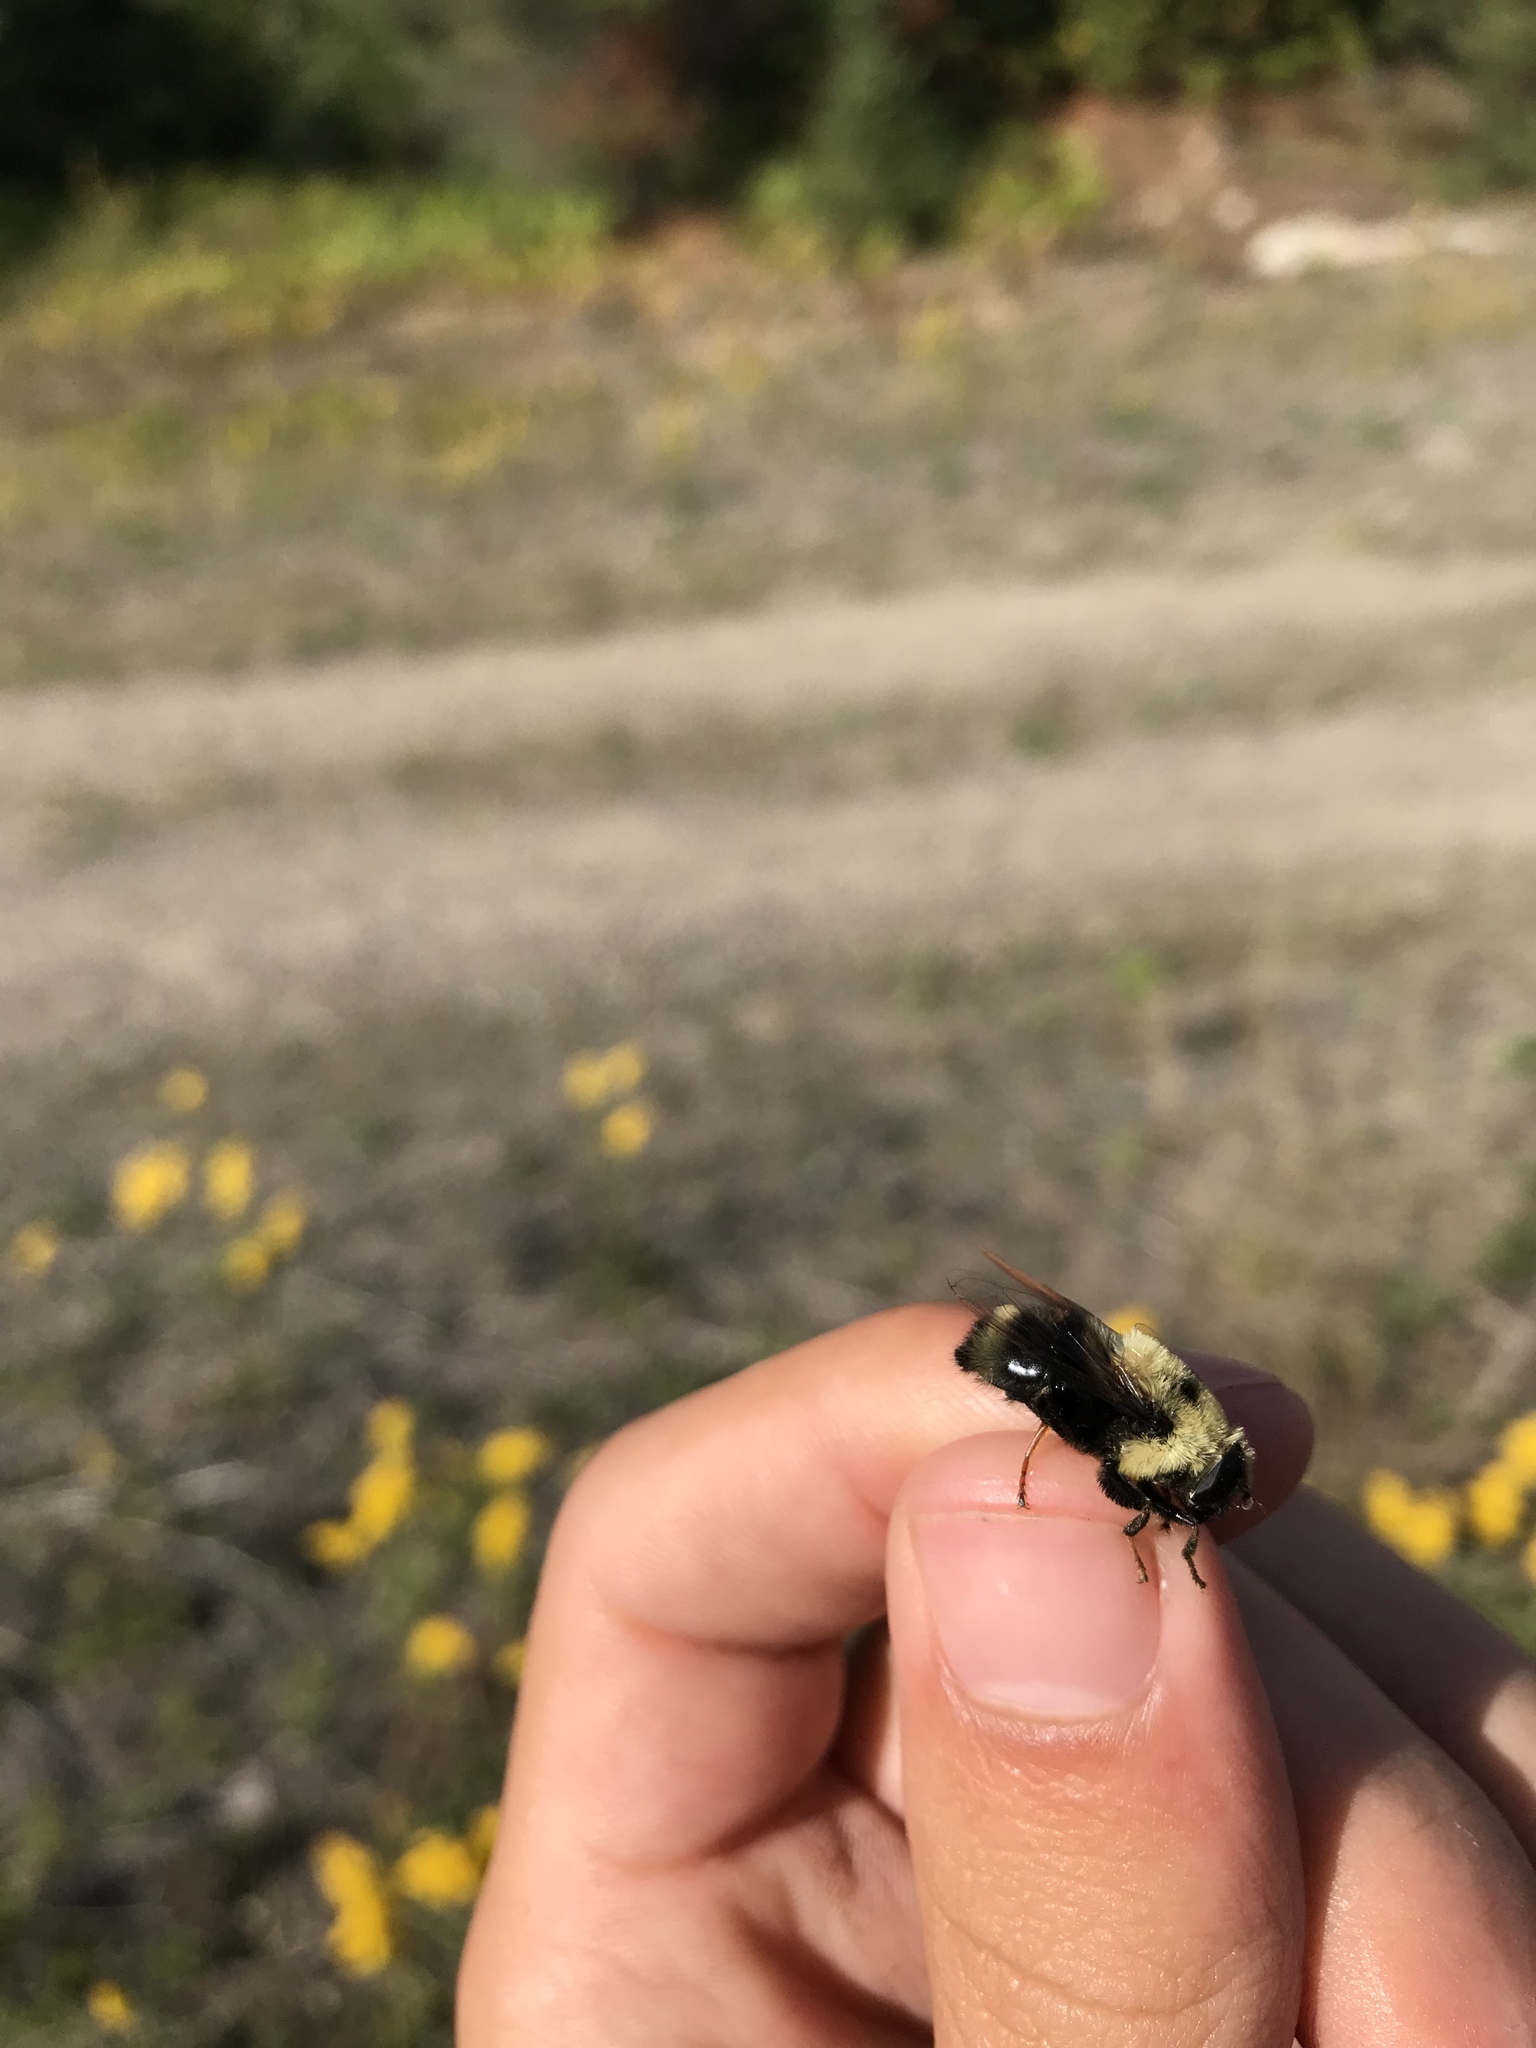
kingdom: Animalia
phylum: Arthropoda
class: Insecta
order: Diptera
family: Syrphidae
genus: Eristalis
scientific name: Eristalis flavipes
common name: Orange-legged drone fly
